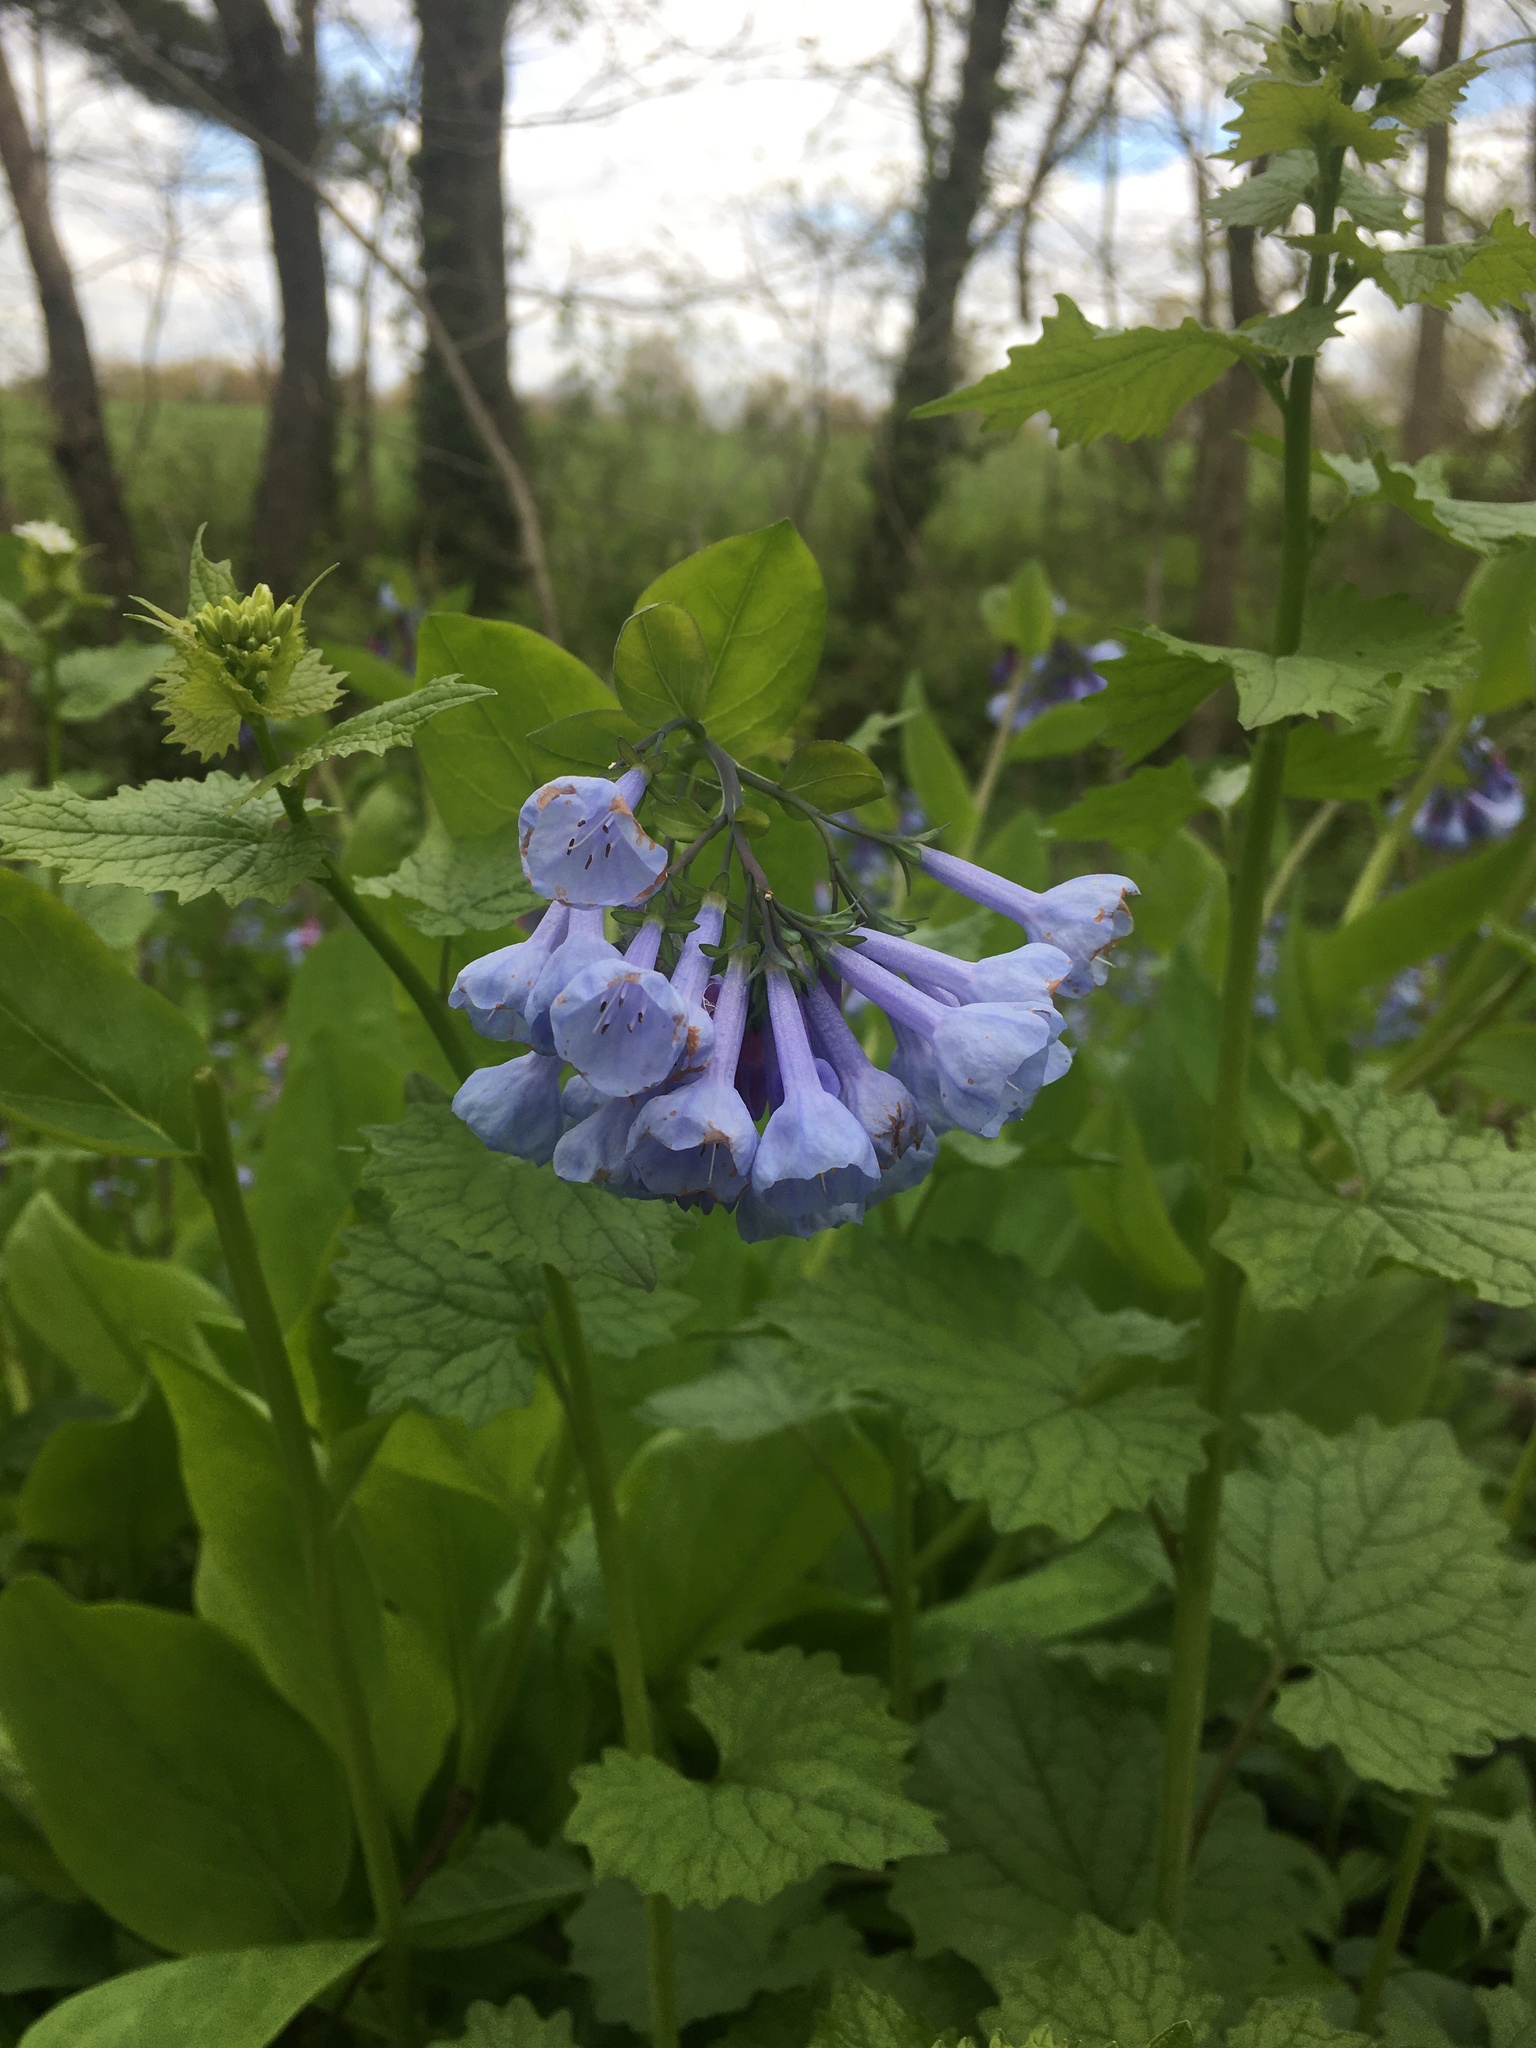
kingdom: Plantae
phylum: Tracheophyta
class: Magnoliopsida
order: Boraginales
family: Boraginaceae
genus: Mertensia
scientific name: Mertensia virginica
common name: Virginia bluebells
